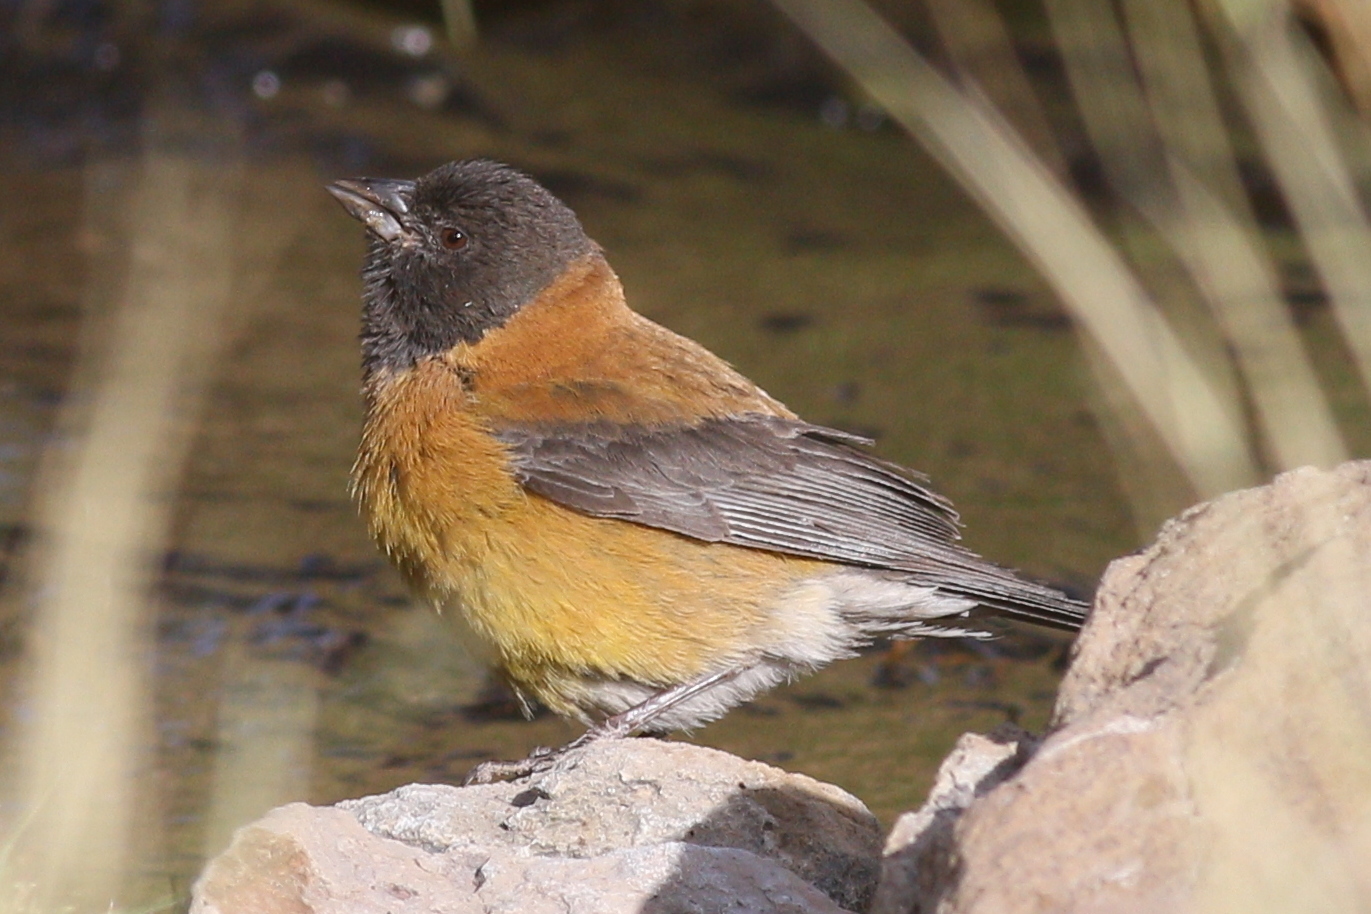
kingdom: Animalia
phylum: Chordata
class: Aves
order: Passeriformes
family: Thraupidae
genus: Phrygilus
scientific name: Phrygilus atriceps
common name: Black-hooded sierra finch
